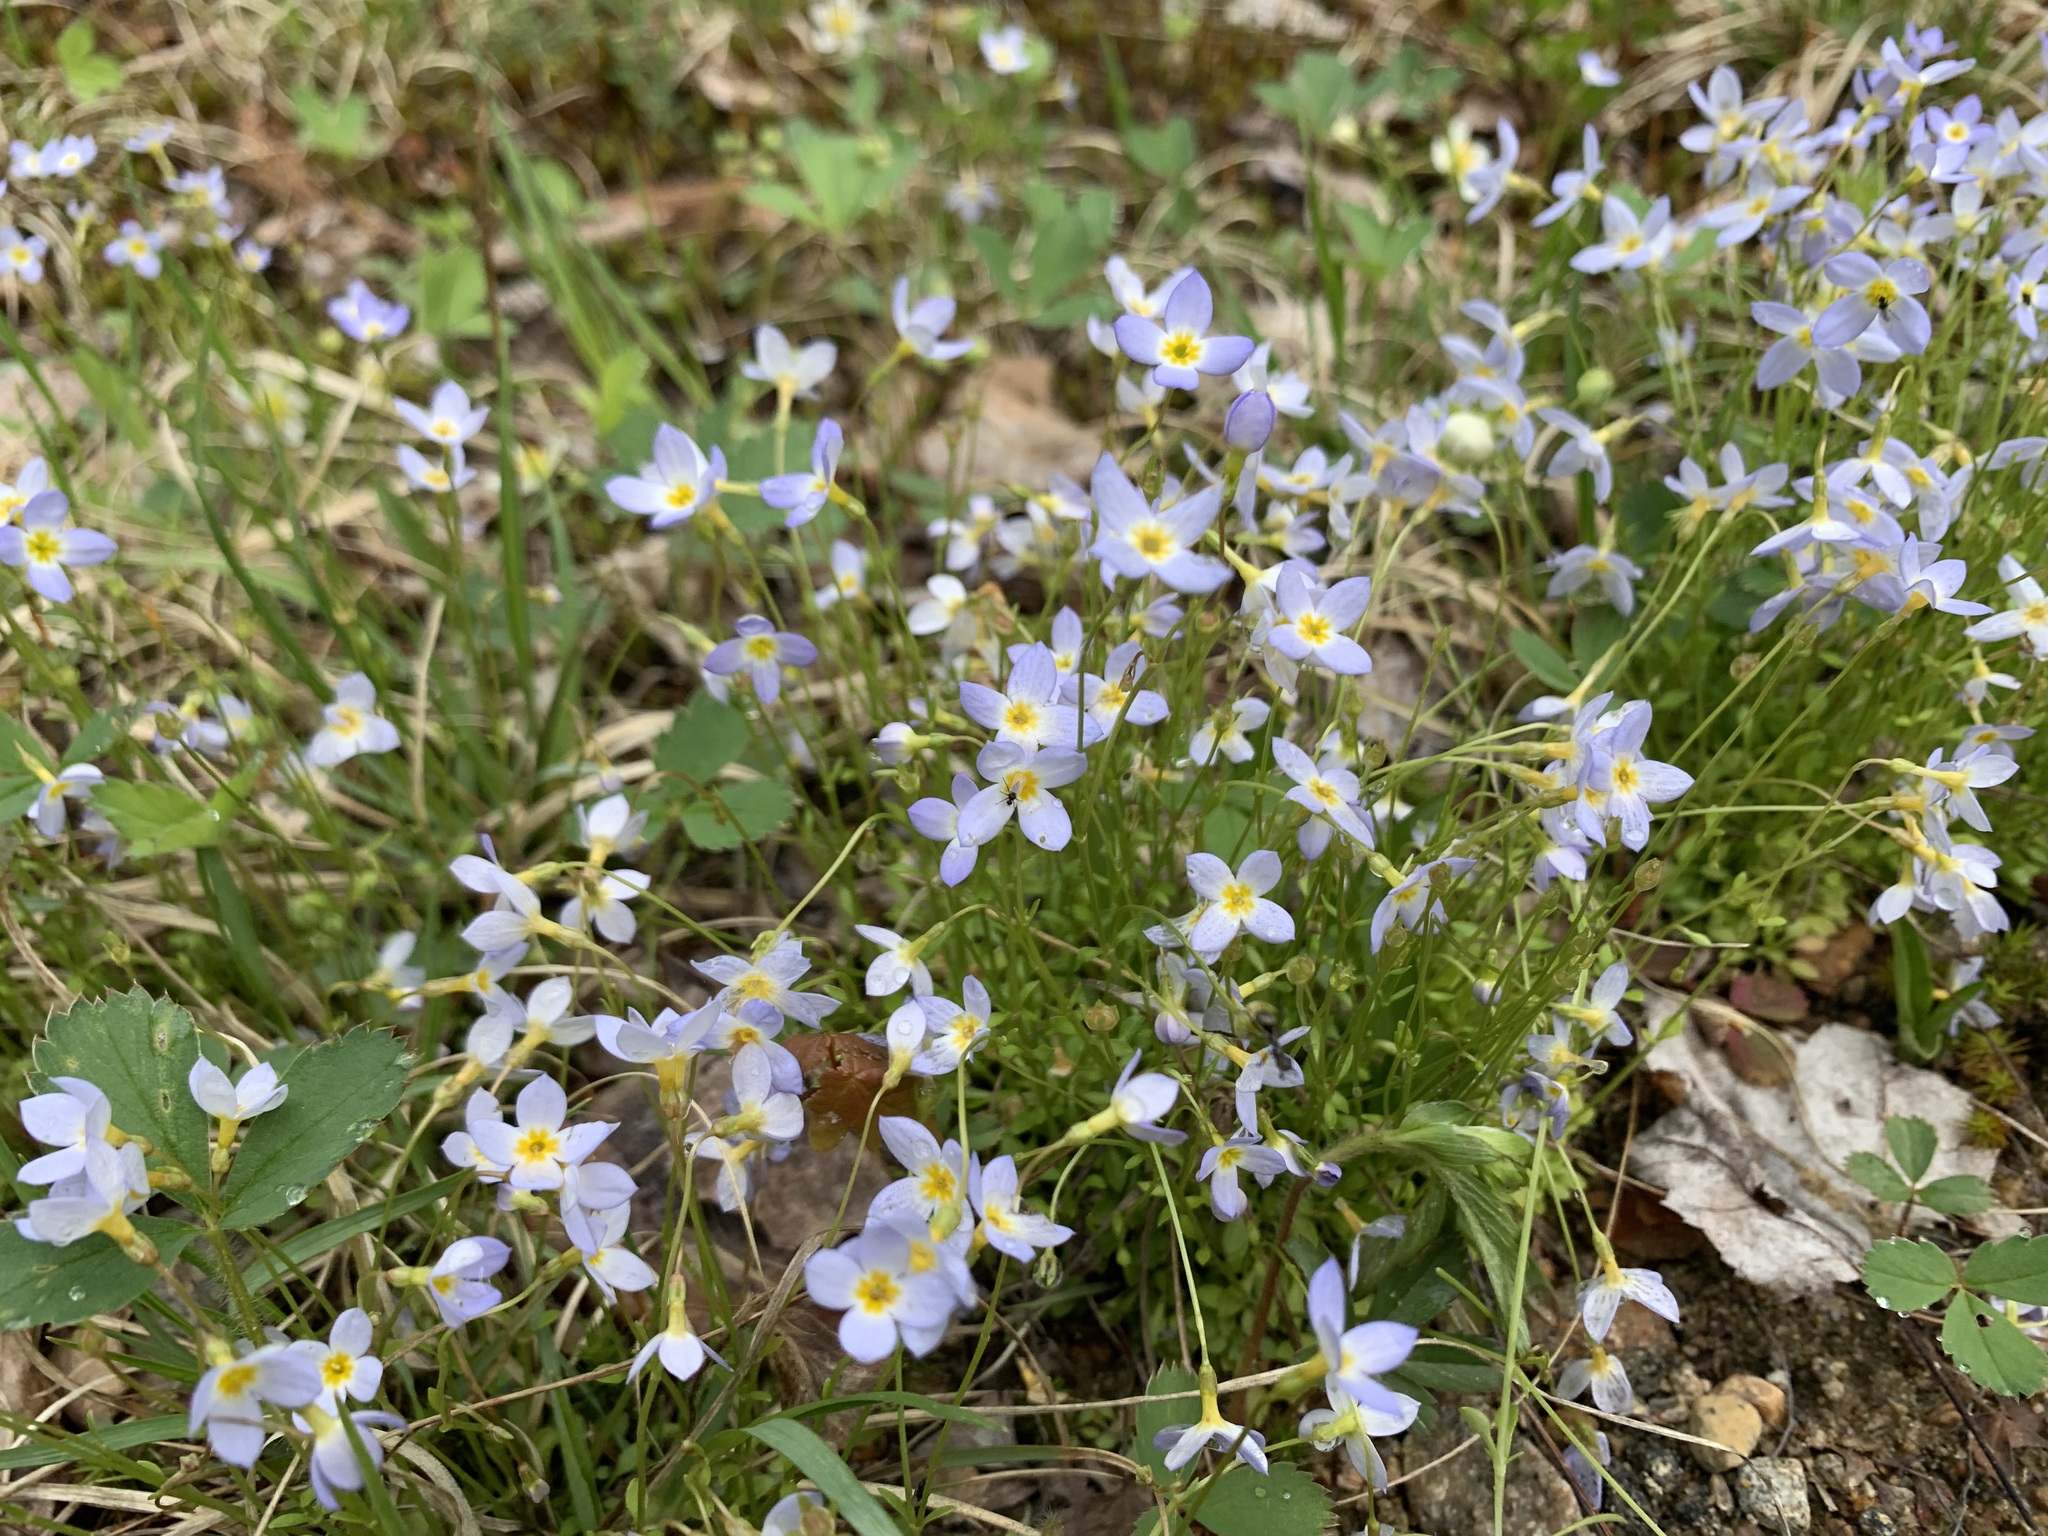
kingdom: Plantae
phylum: Tracheophyta
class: Magnoliopsida
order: Gentianales
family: Rubiaceae
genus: Houstonia
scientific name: Houstonia caerulea
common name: Bluets
